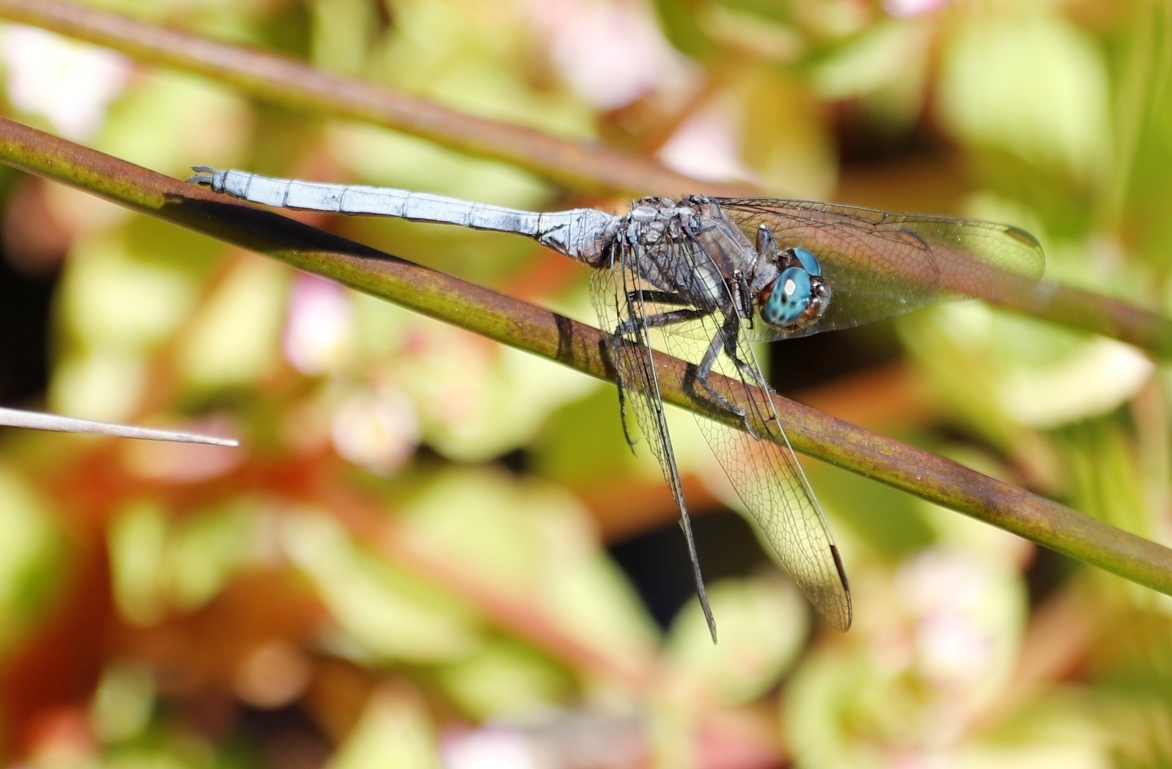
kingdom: Animalia
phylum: Arthropoda
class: Insecta
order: Odonata
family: Libellulidae
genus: Orthetrum
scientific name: Orthetrum julia
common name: Julia skimmer
